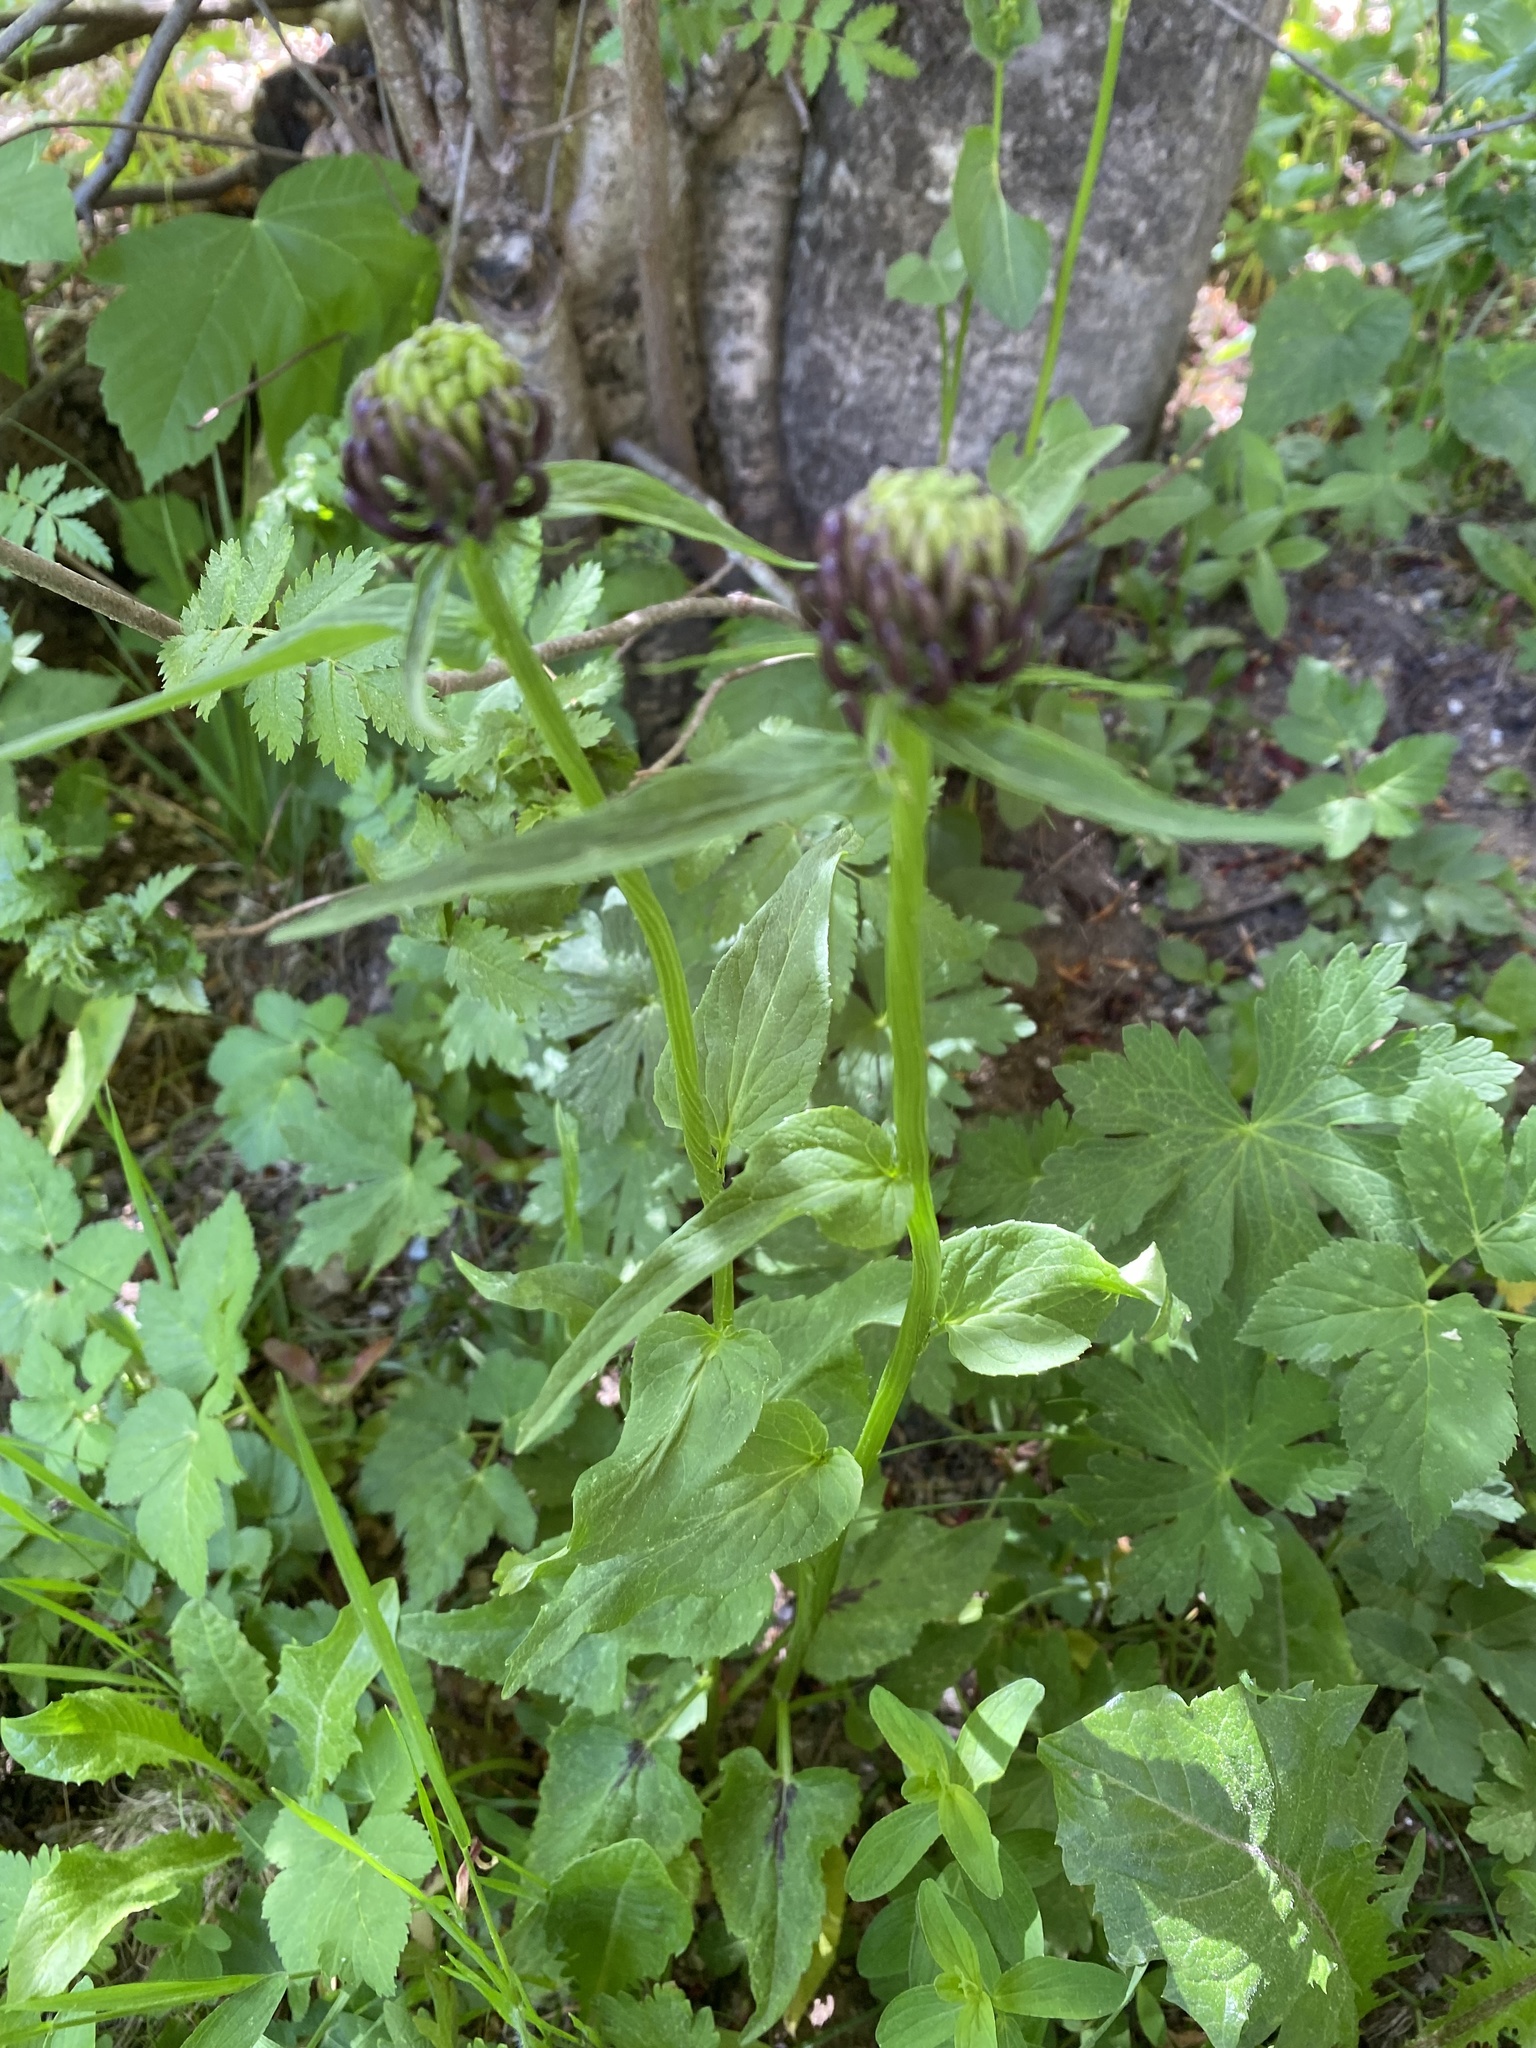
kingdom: Plantae
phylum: Tracheophyta
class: Magnoliopsida
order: Asterales
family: Campanulaceae
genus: Phyteuma
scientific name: Phyteuma ovatum
